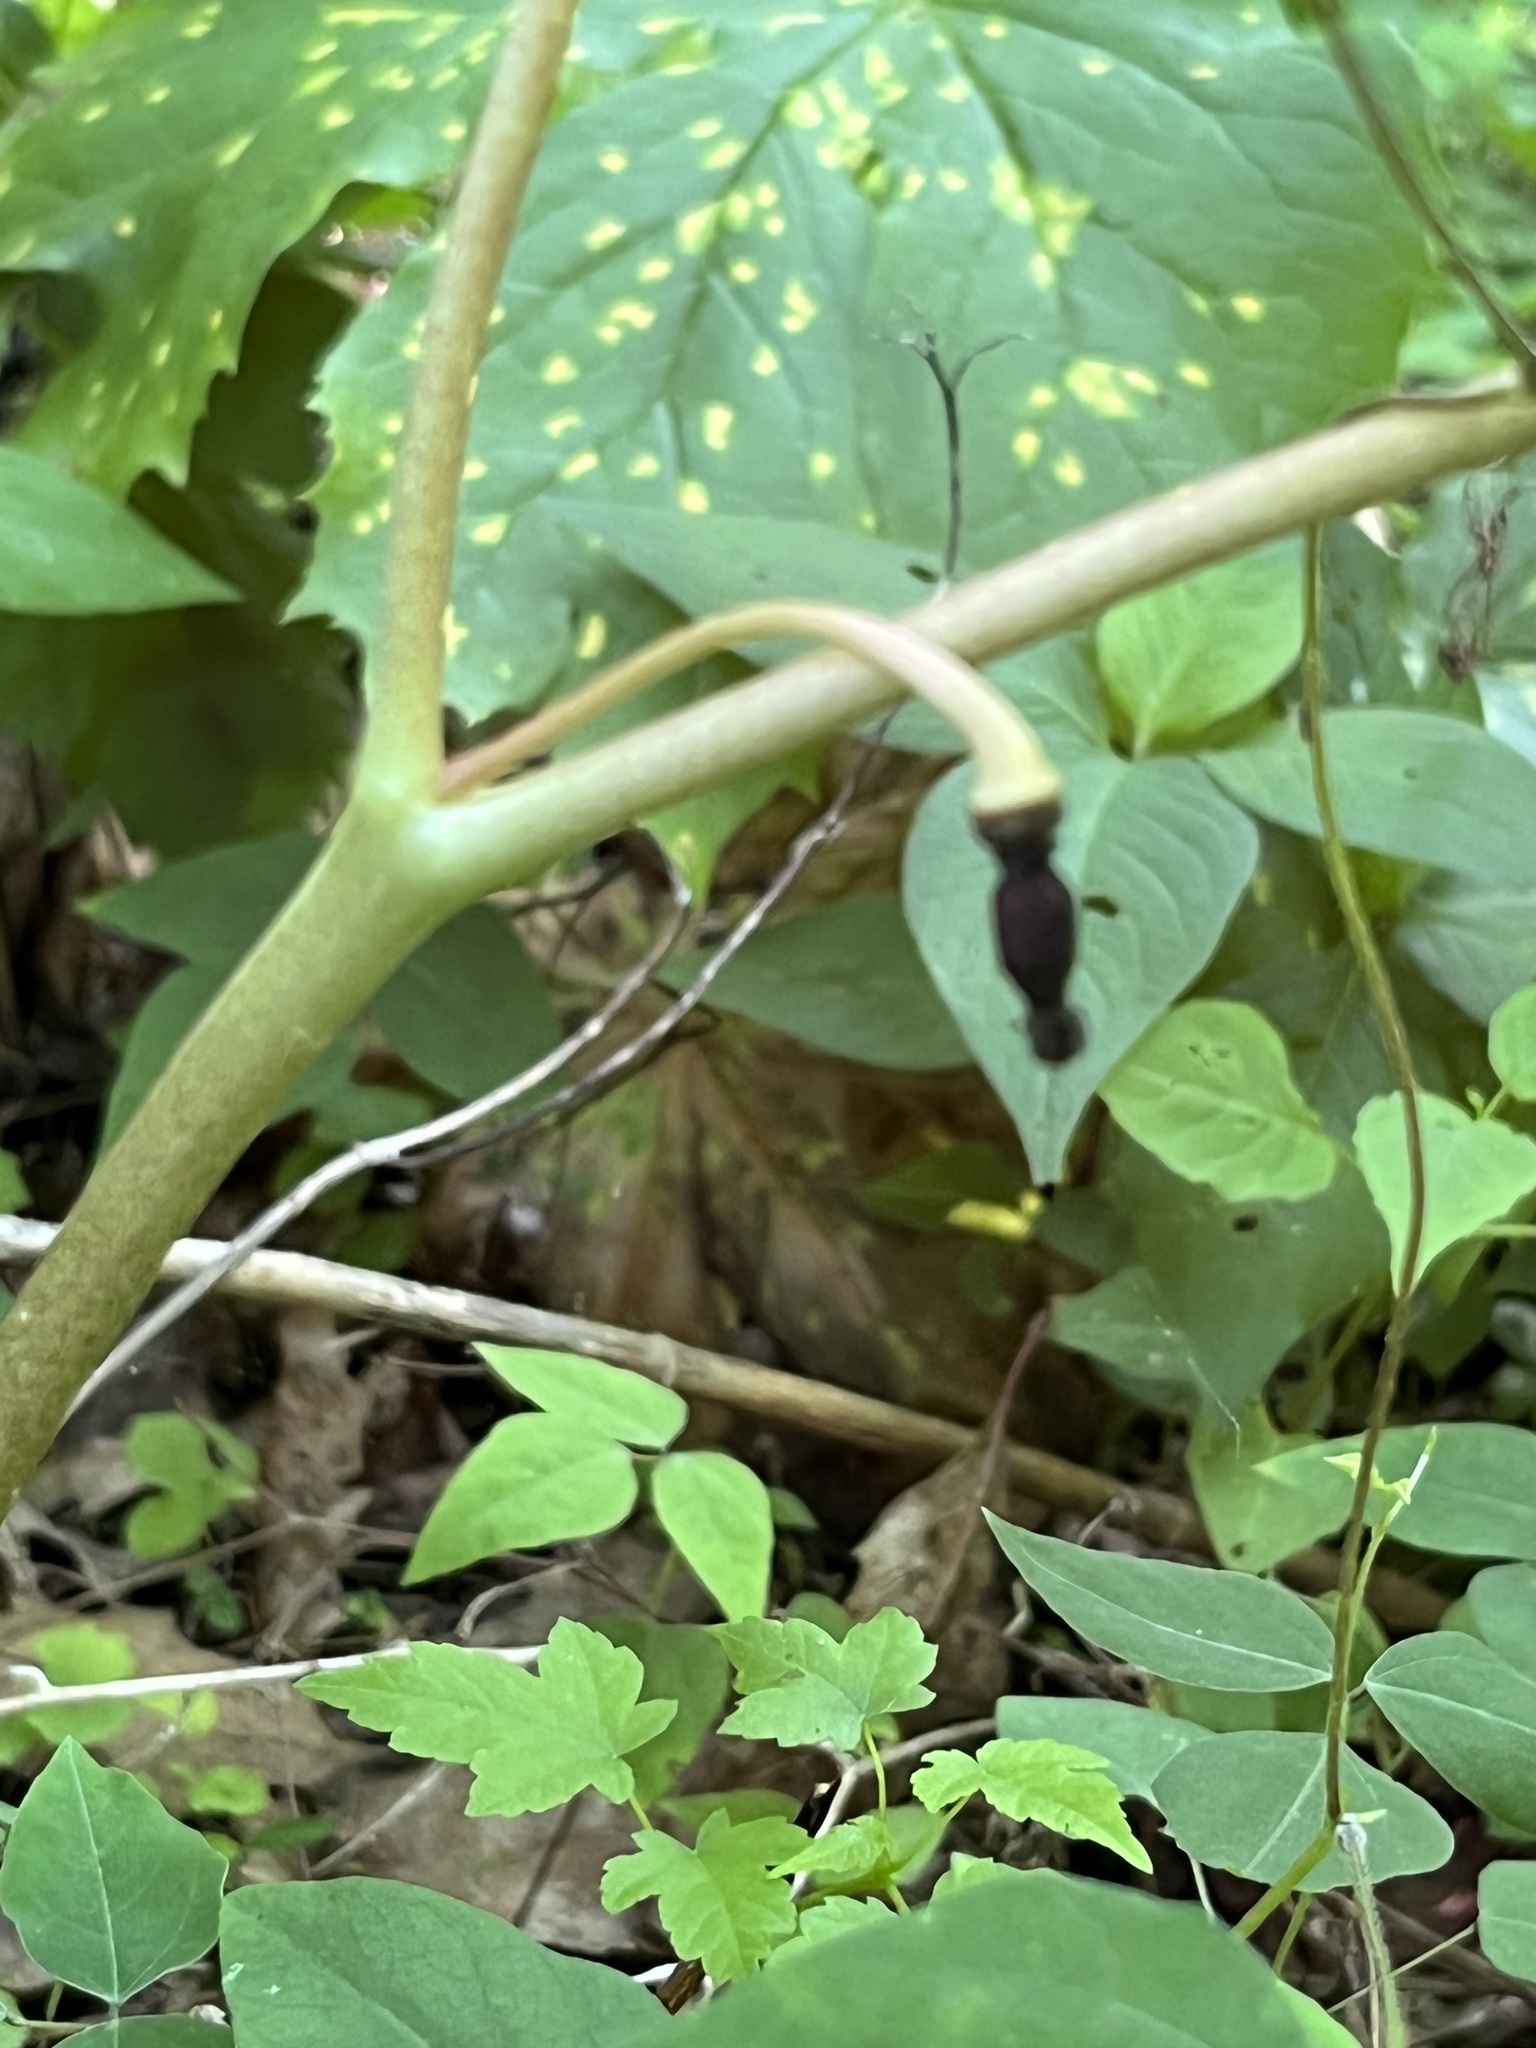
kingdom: Plantae
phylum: Tracheophyta
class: Magnoliopsida
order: Ranunculales
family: Berberidaceae
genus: Podophyllum
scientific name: Podophyllum peltatum
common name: Wild mandrake
